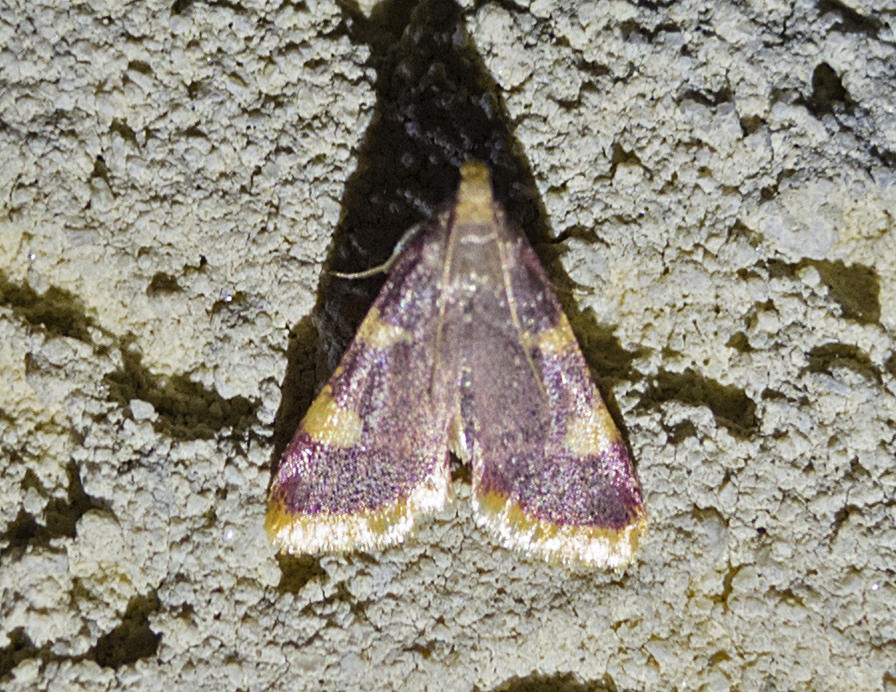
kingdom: Animalia
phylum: Arthropoda
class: Insecta
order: Lepidoptera
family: Pyralidae
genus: Hypsopygia
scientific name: Hypsopygia costalis
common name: Gold triangle
